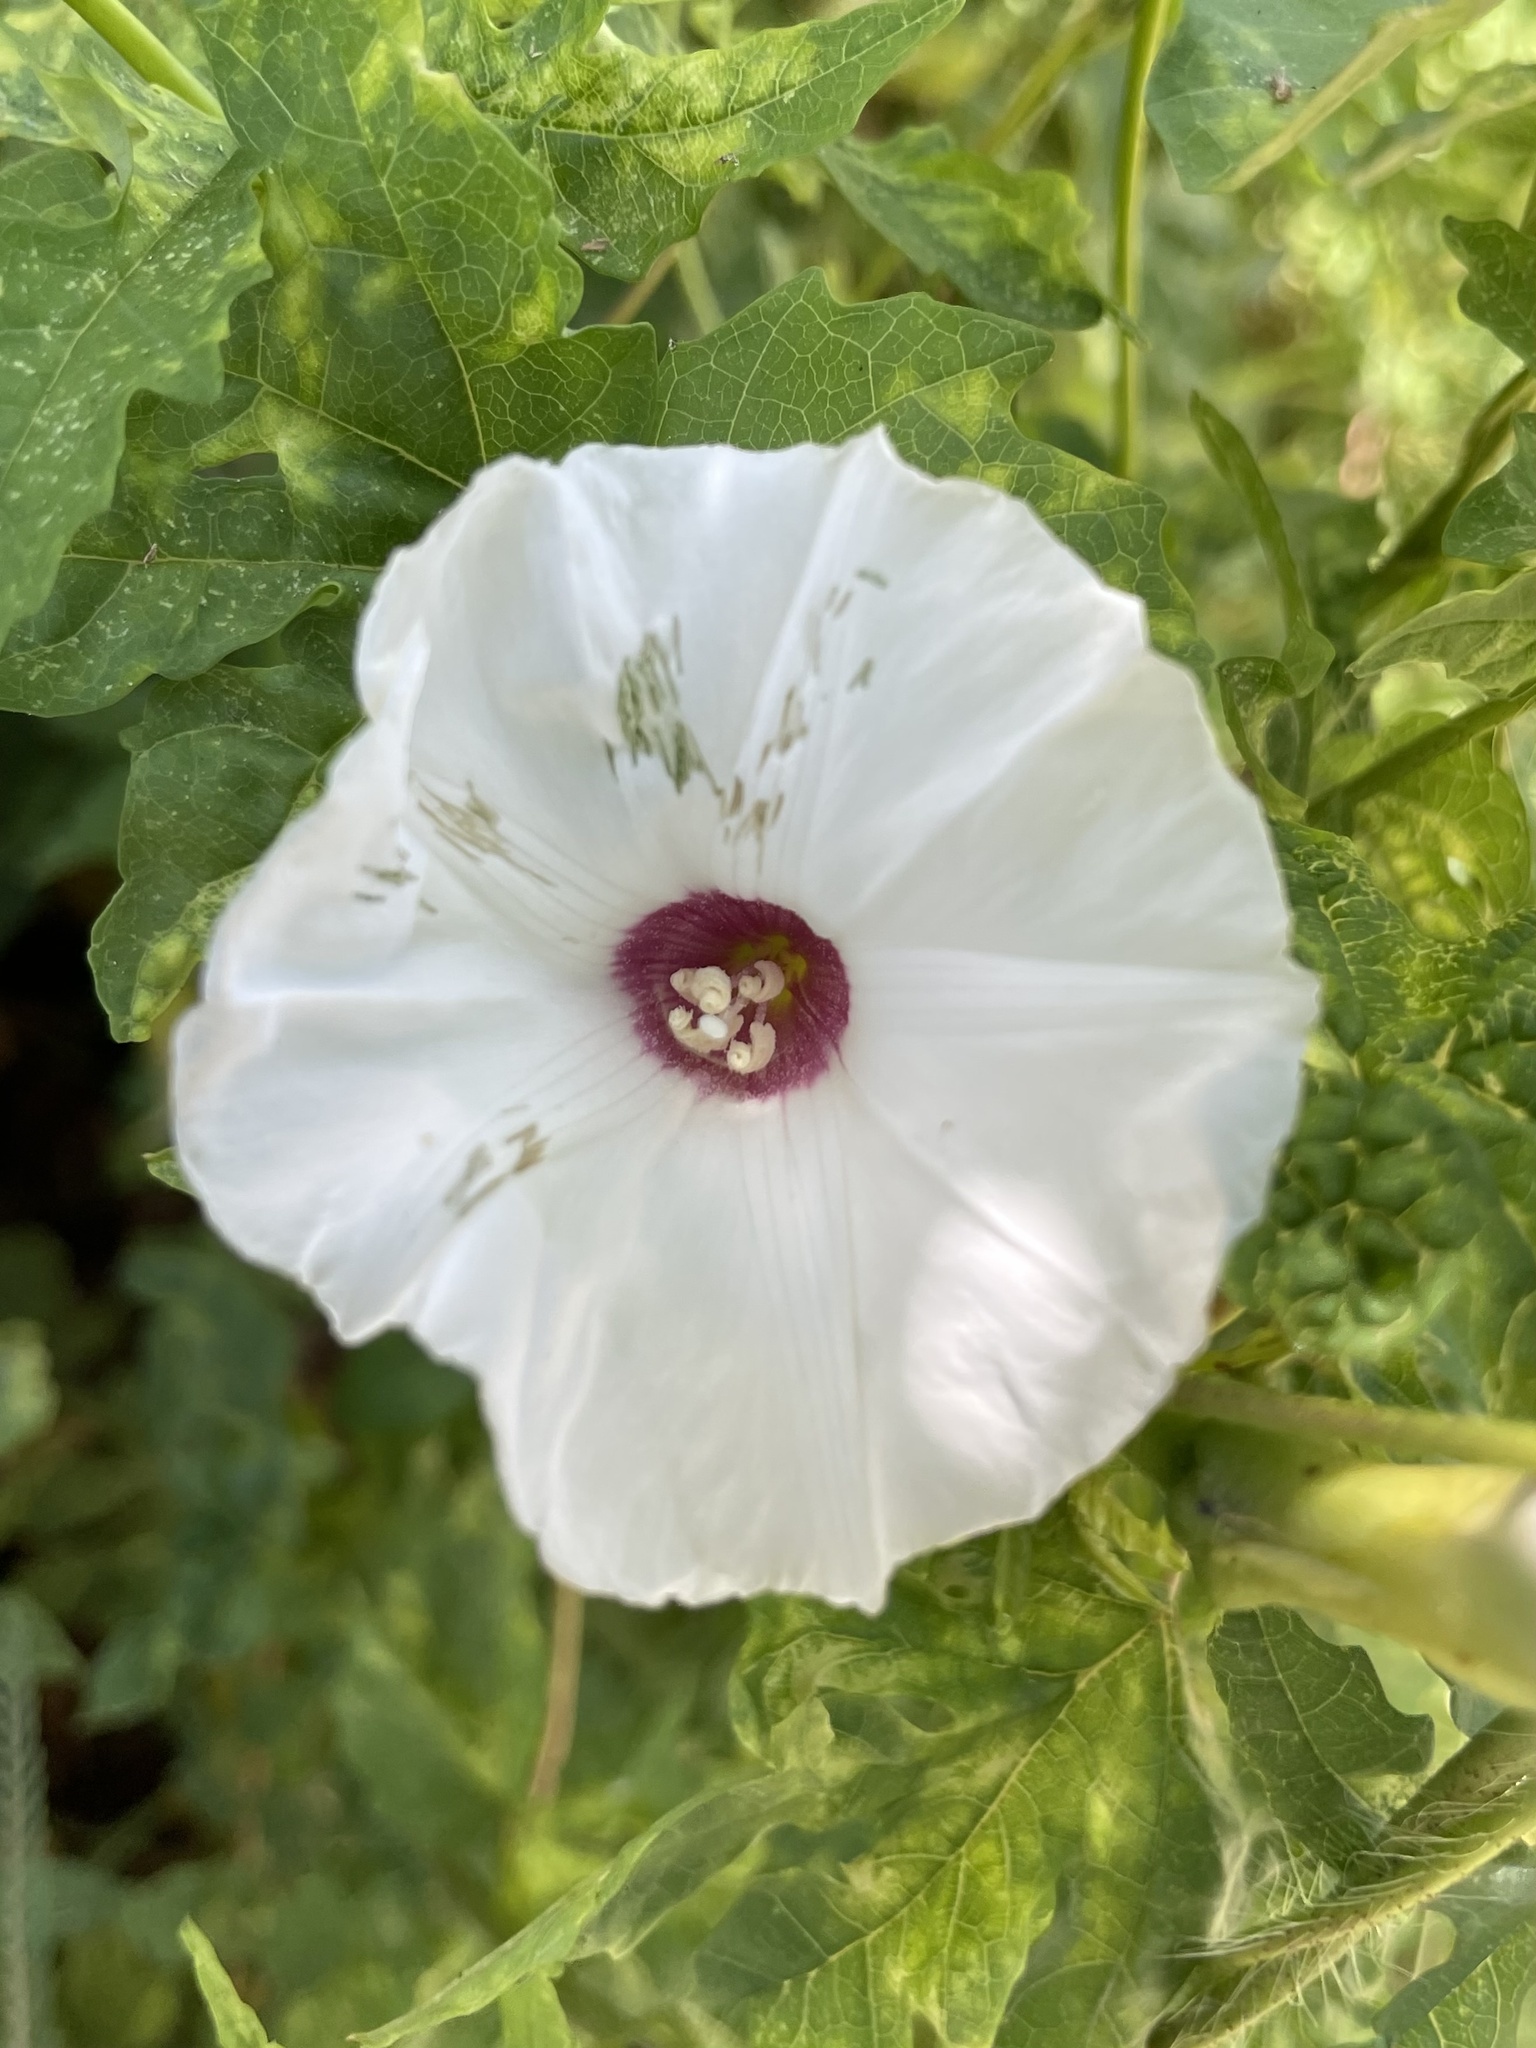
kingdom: Plantae
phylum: Tracheophyta
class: Magnoliopsida
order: Solanales
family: Convolvulaceae
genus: Distimake
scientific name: Distimake dissectus
